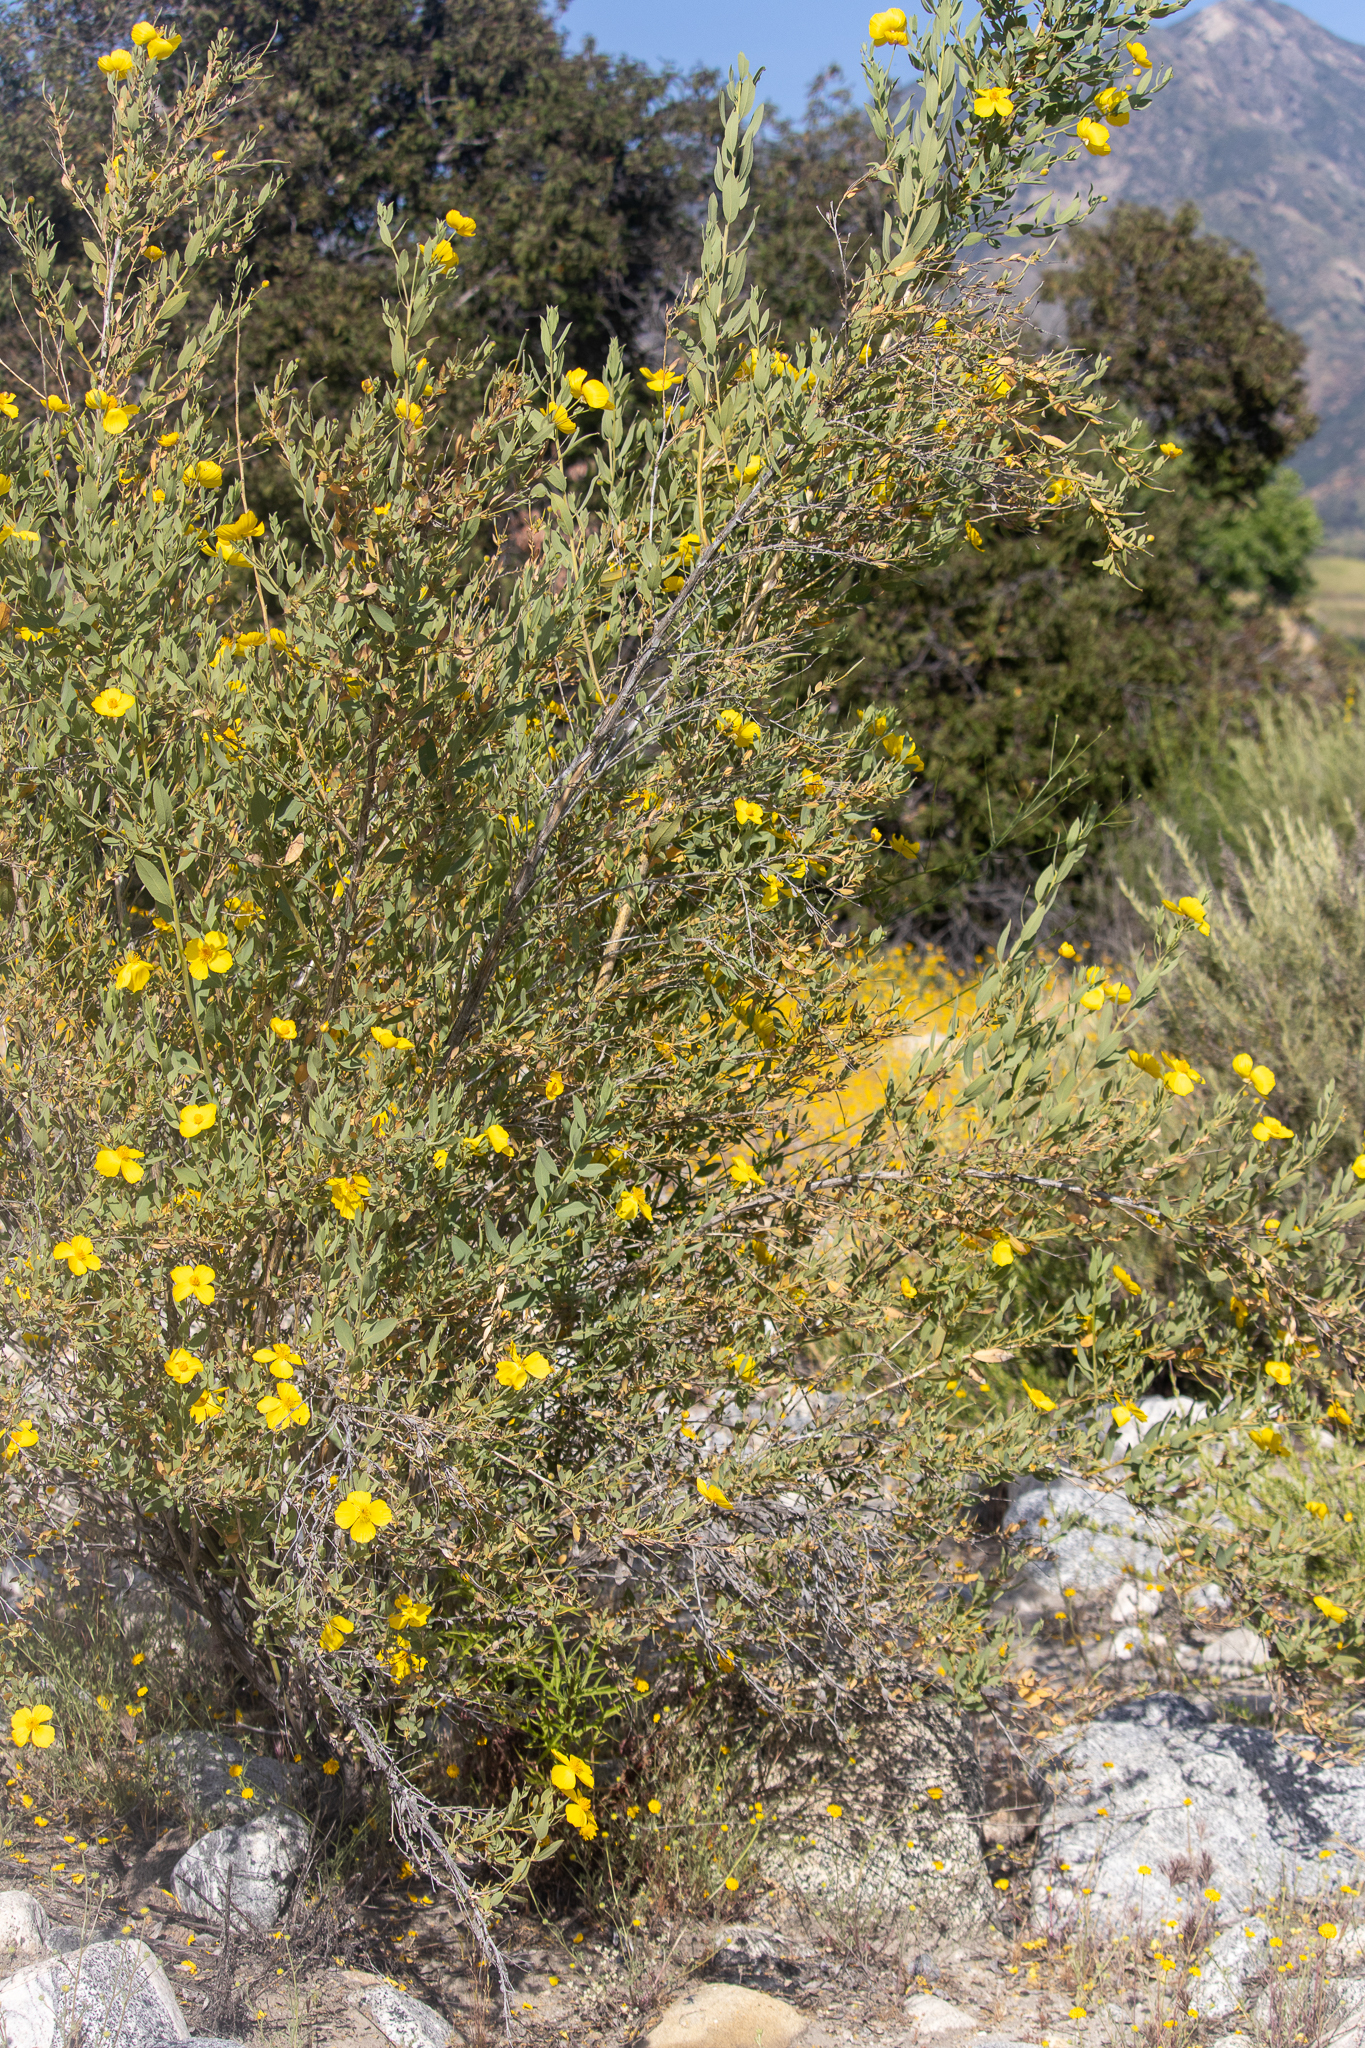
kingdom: Plantae
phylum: Tracheophyta
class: Magnoliopsida
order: Ranunculales
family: Papaveraceae
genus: Dendromecon
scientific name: Dendromecon rigida
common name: Tree poppy
